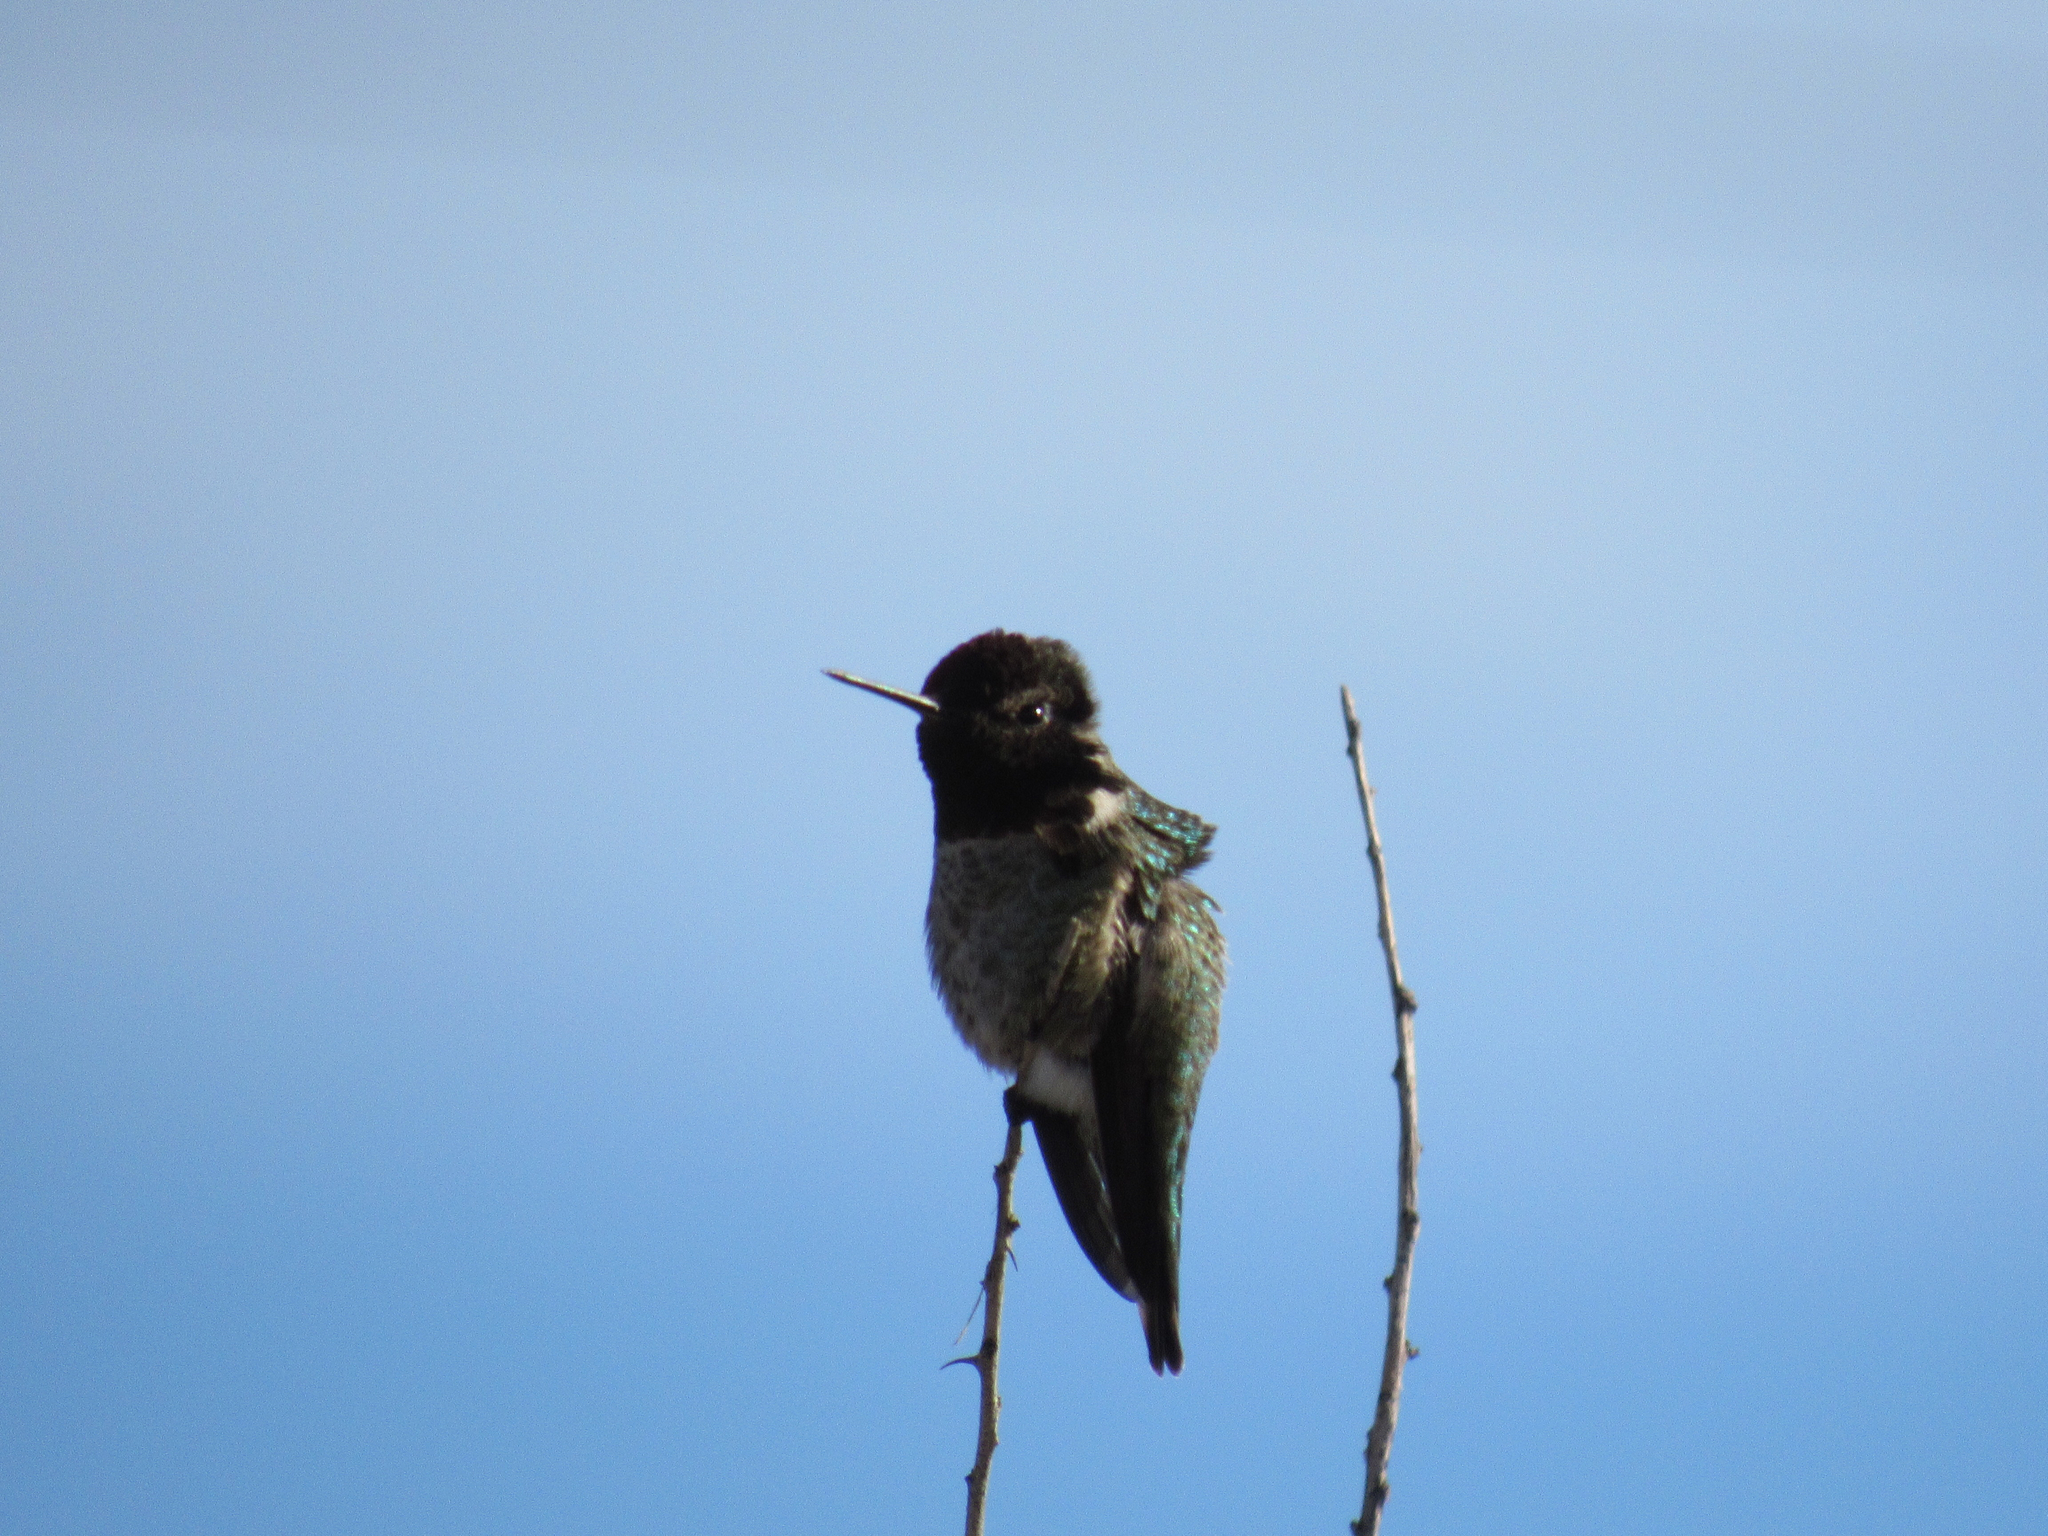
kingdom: Animalia
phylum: Chordata
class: Aves
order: Apodiformes
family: Trochilidae
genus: Calypte
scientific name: Calypte anna
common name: Anna's hummingbird
